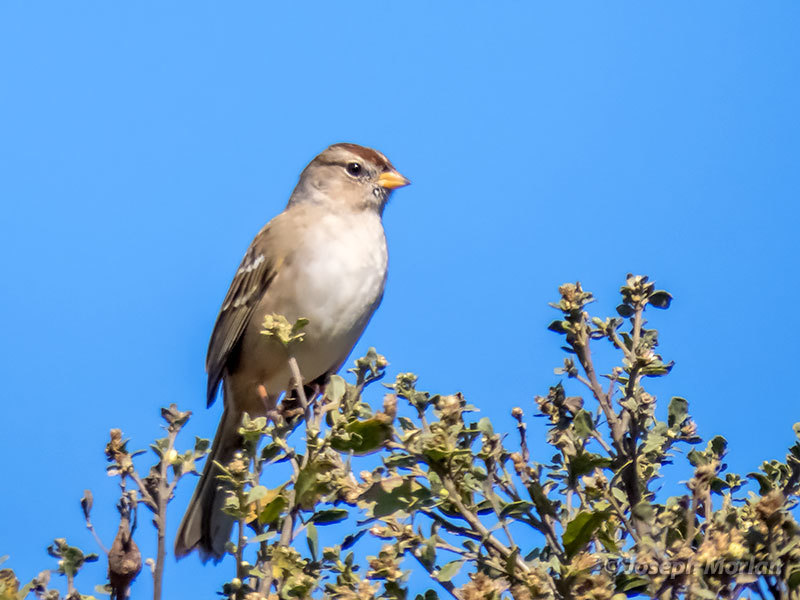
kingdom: Animalia
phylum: Chordata
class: Aves
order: Passeriformes
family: Passerellidae
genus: Zonotrichia
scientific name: Zonotrichia leucophrys
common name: White-crowned sparrow
